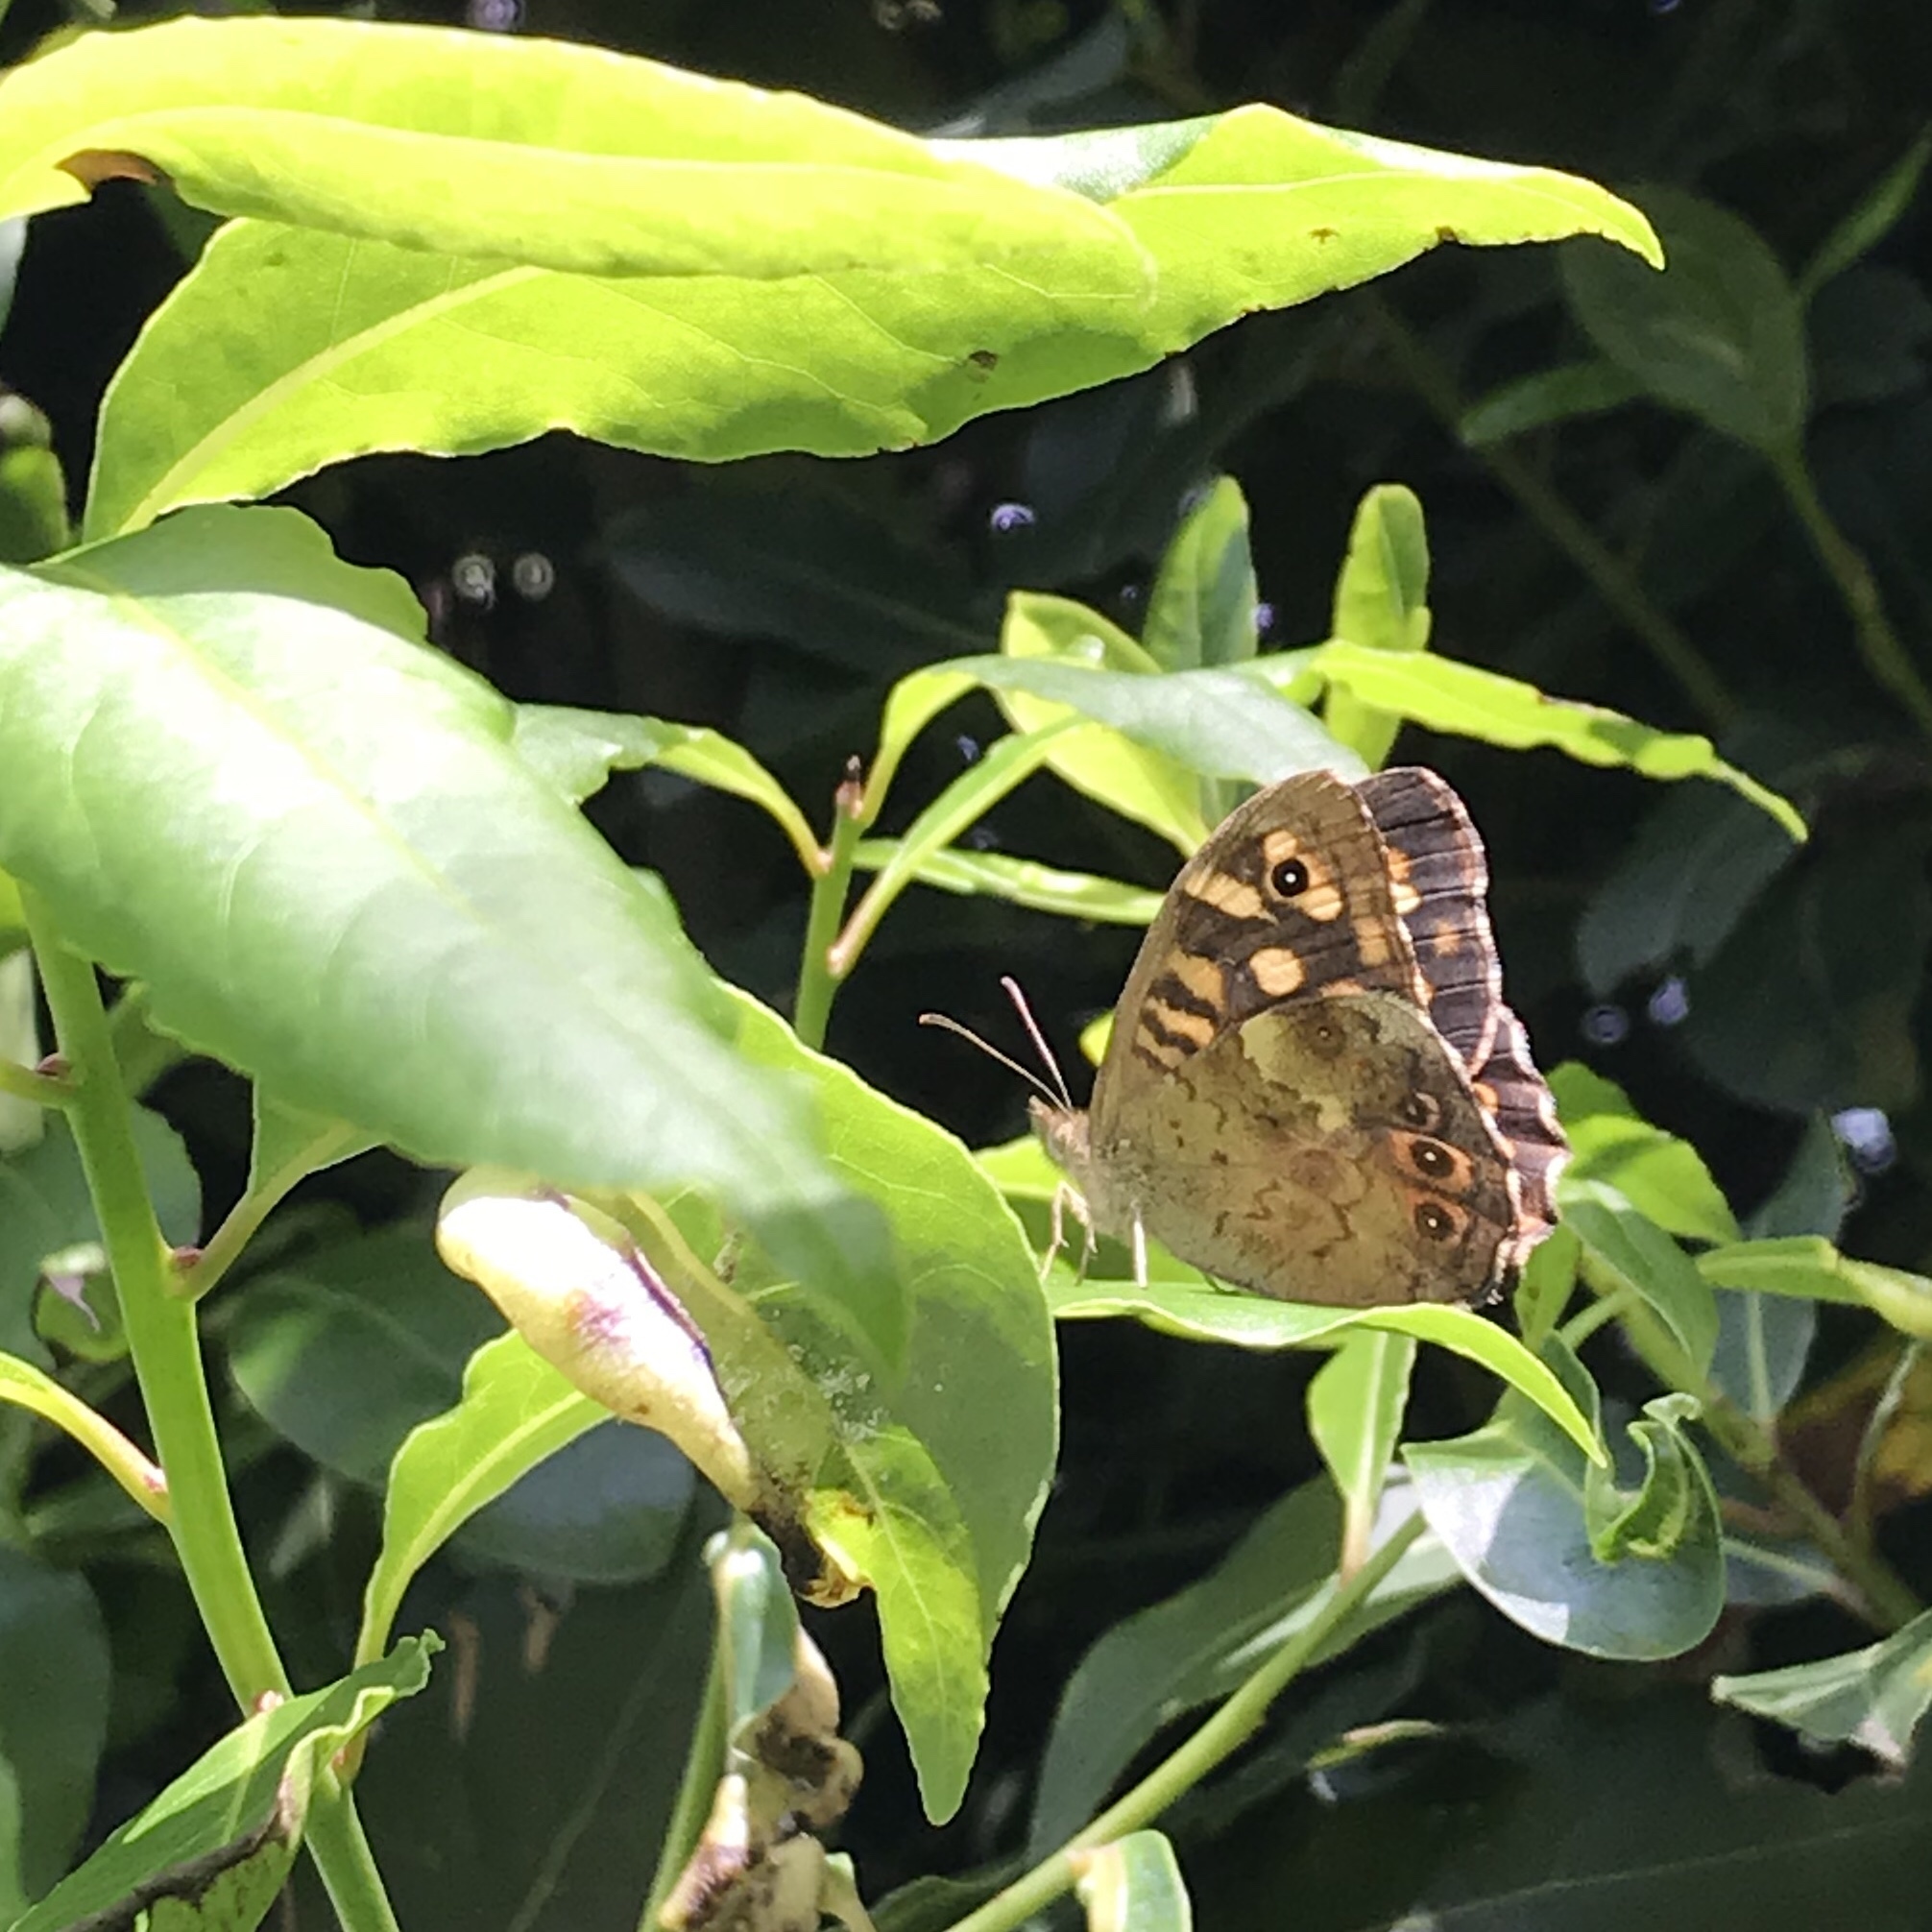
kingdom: Animalia
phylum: Arthropoda
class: Insecta
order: Lepidoptera
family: Nymphalidae
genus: Pararge
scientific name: Pararge aegeria
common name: Speckled wood
